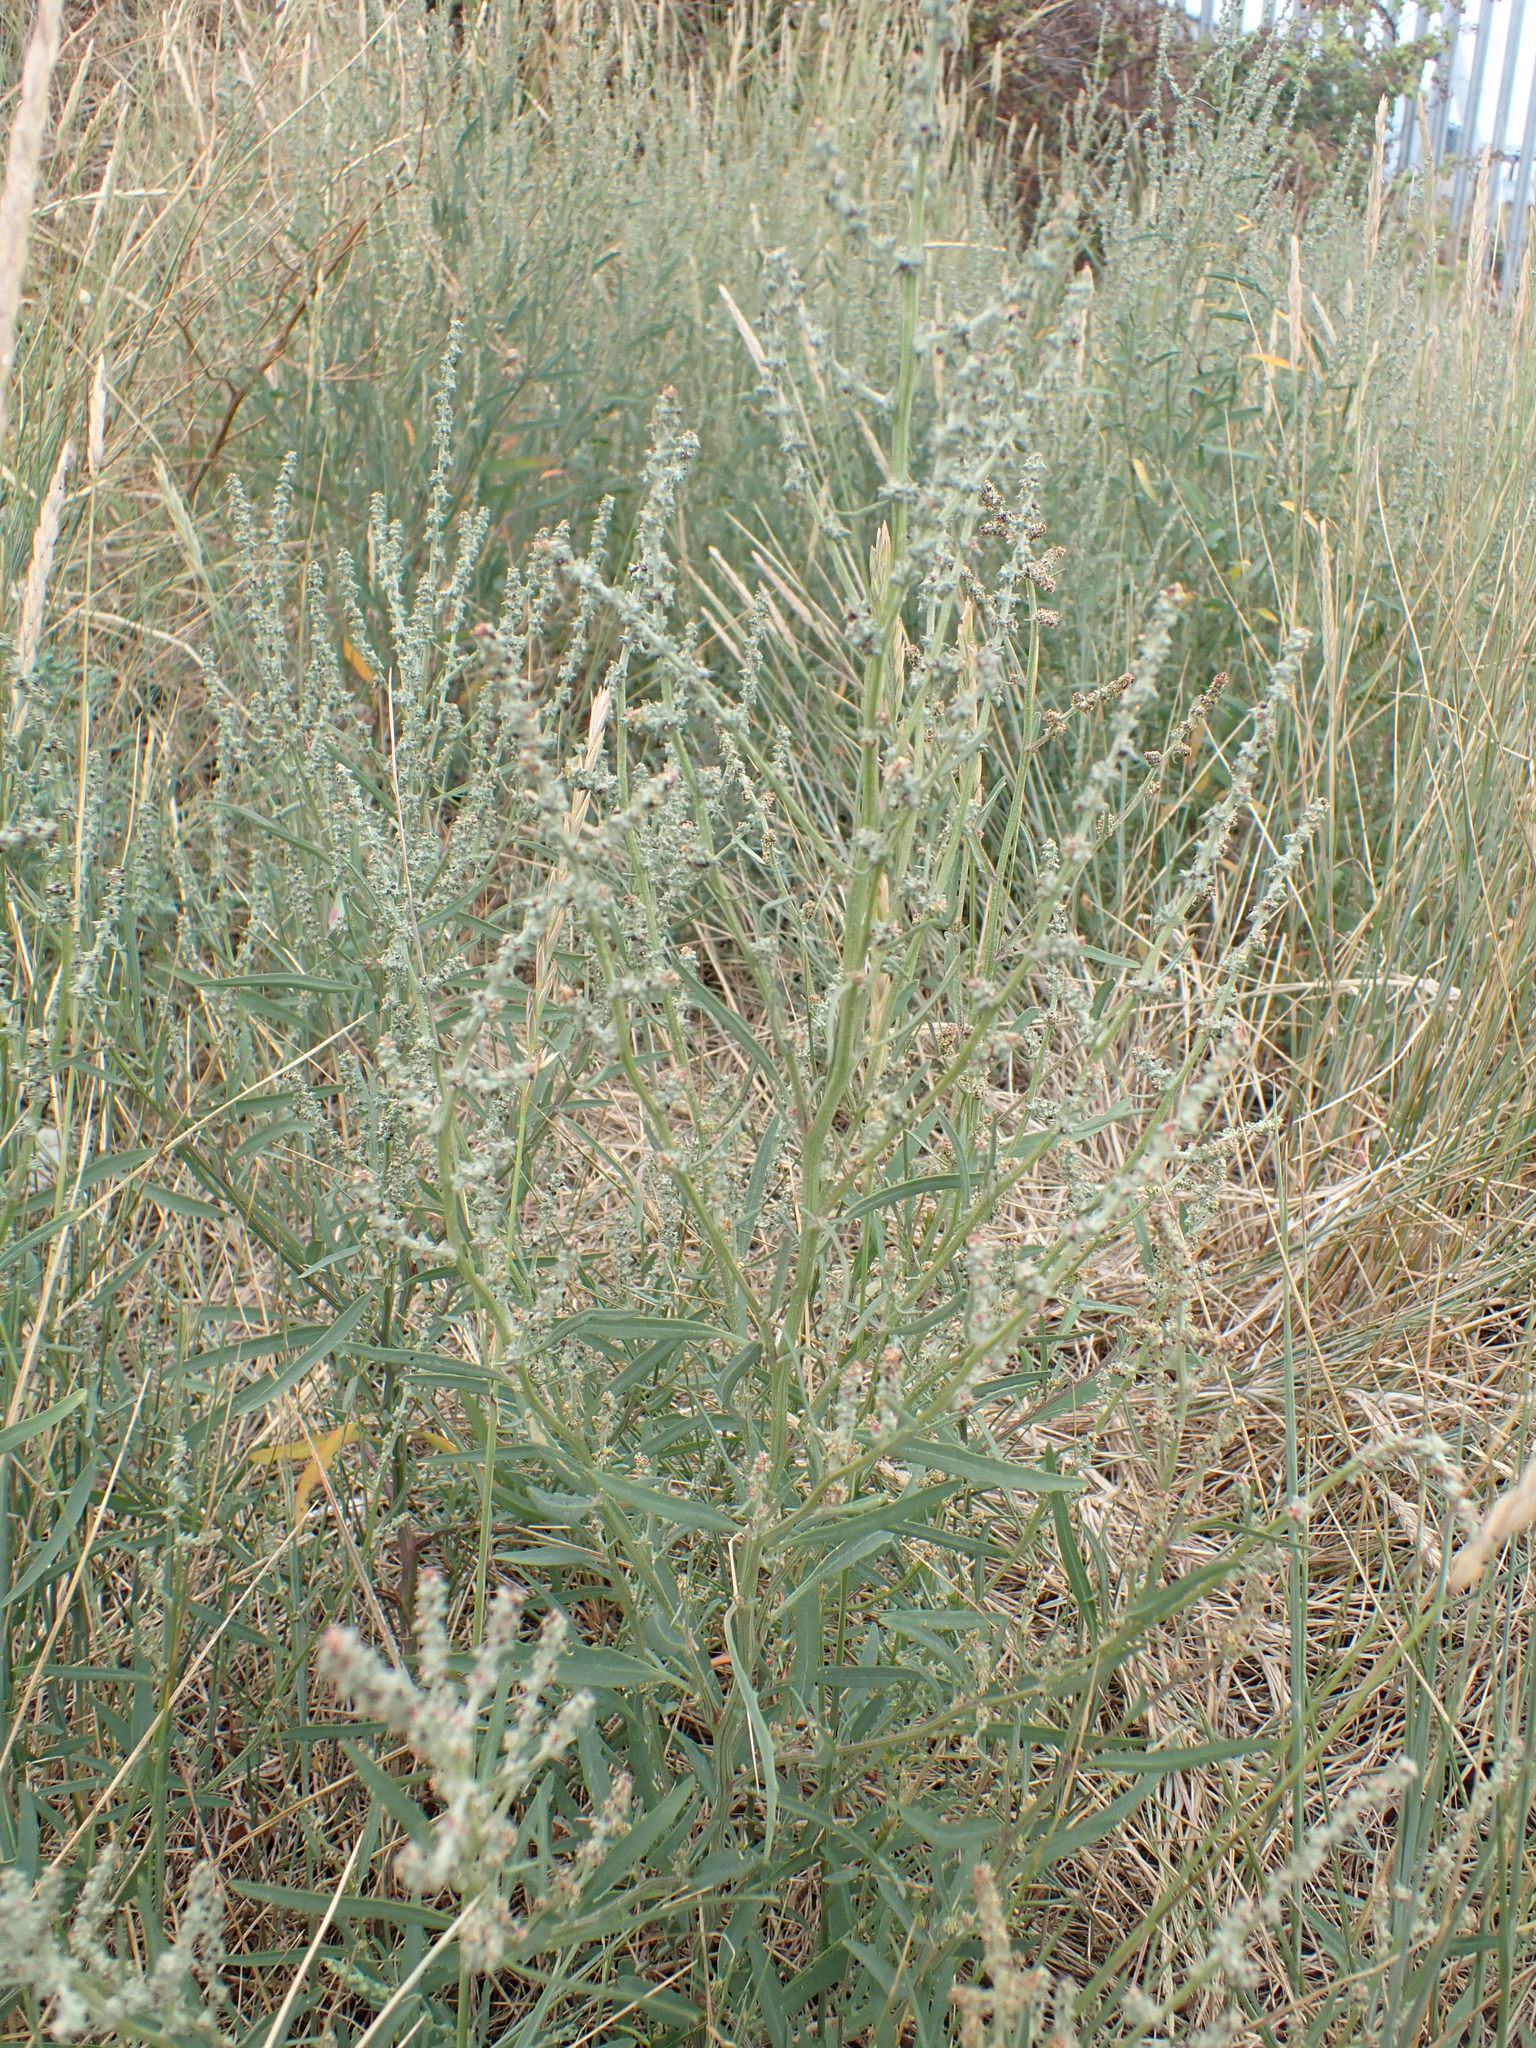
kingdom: Plantae
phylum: Tracheophyta
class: Magnoliopsida
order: Caryophyllales
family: Amaranthaceae
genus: Atriplex
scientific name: Atriplex littoralis
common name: Grass-leaved orache
